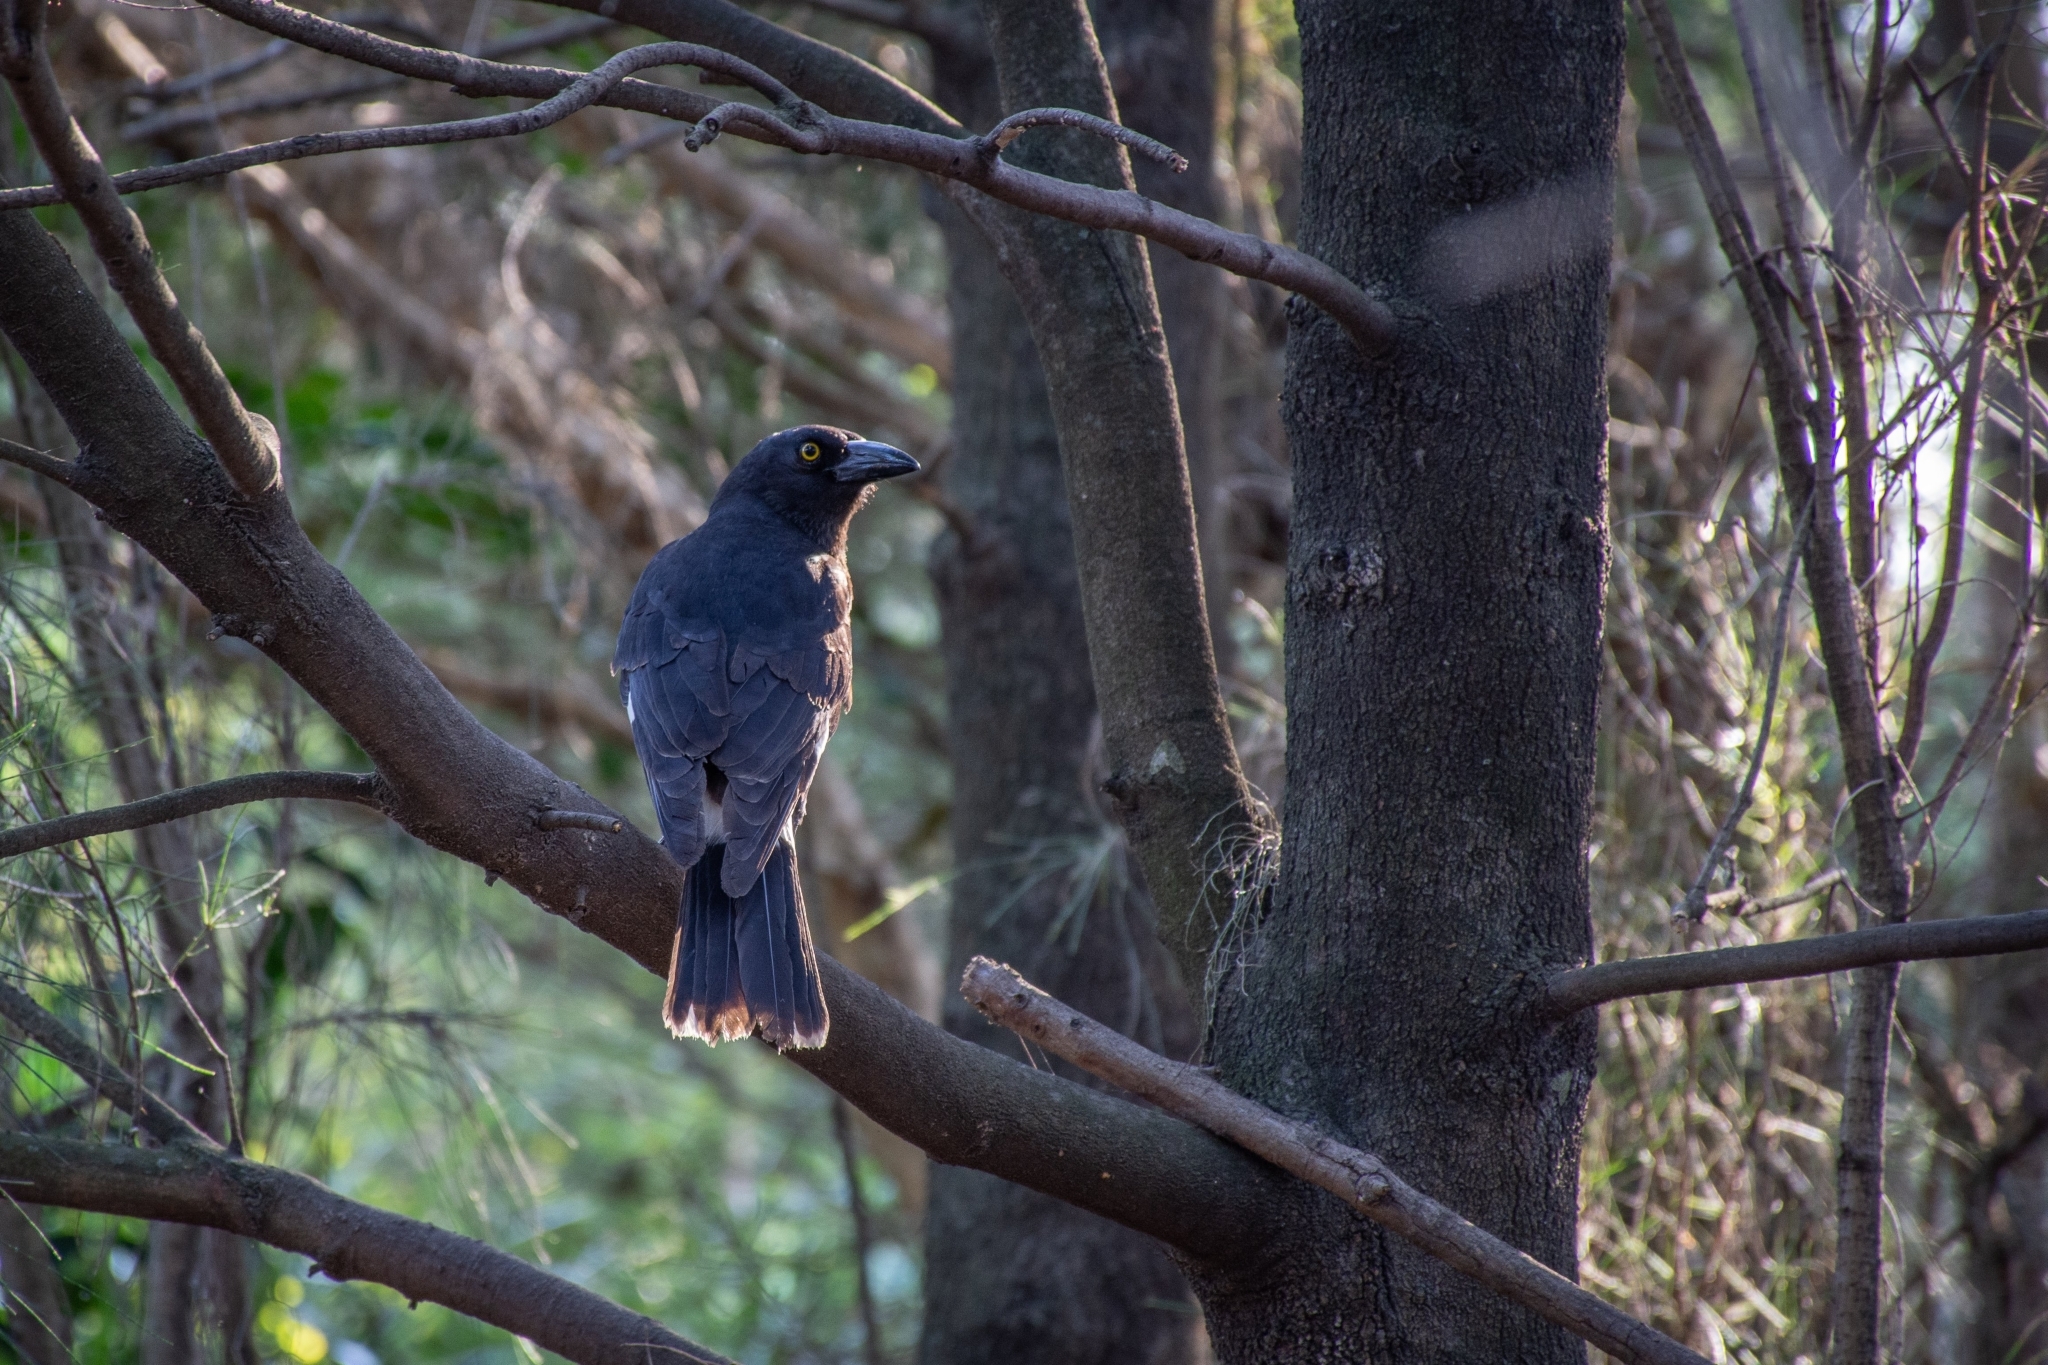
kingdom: Animalia
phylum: Chordata
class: Aves
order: Passeriformes
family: Cracticidae
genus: Strepera
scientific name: Strepera graculina
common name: Pied currawong
